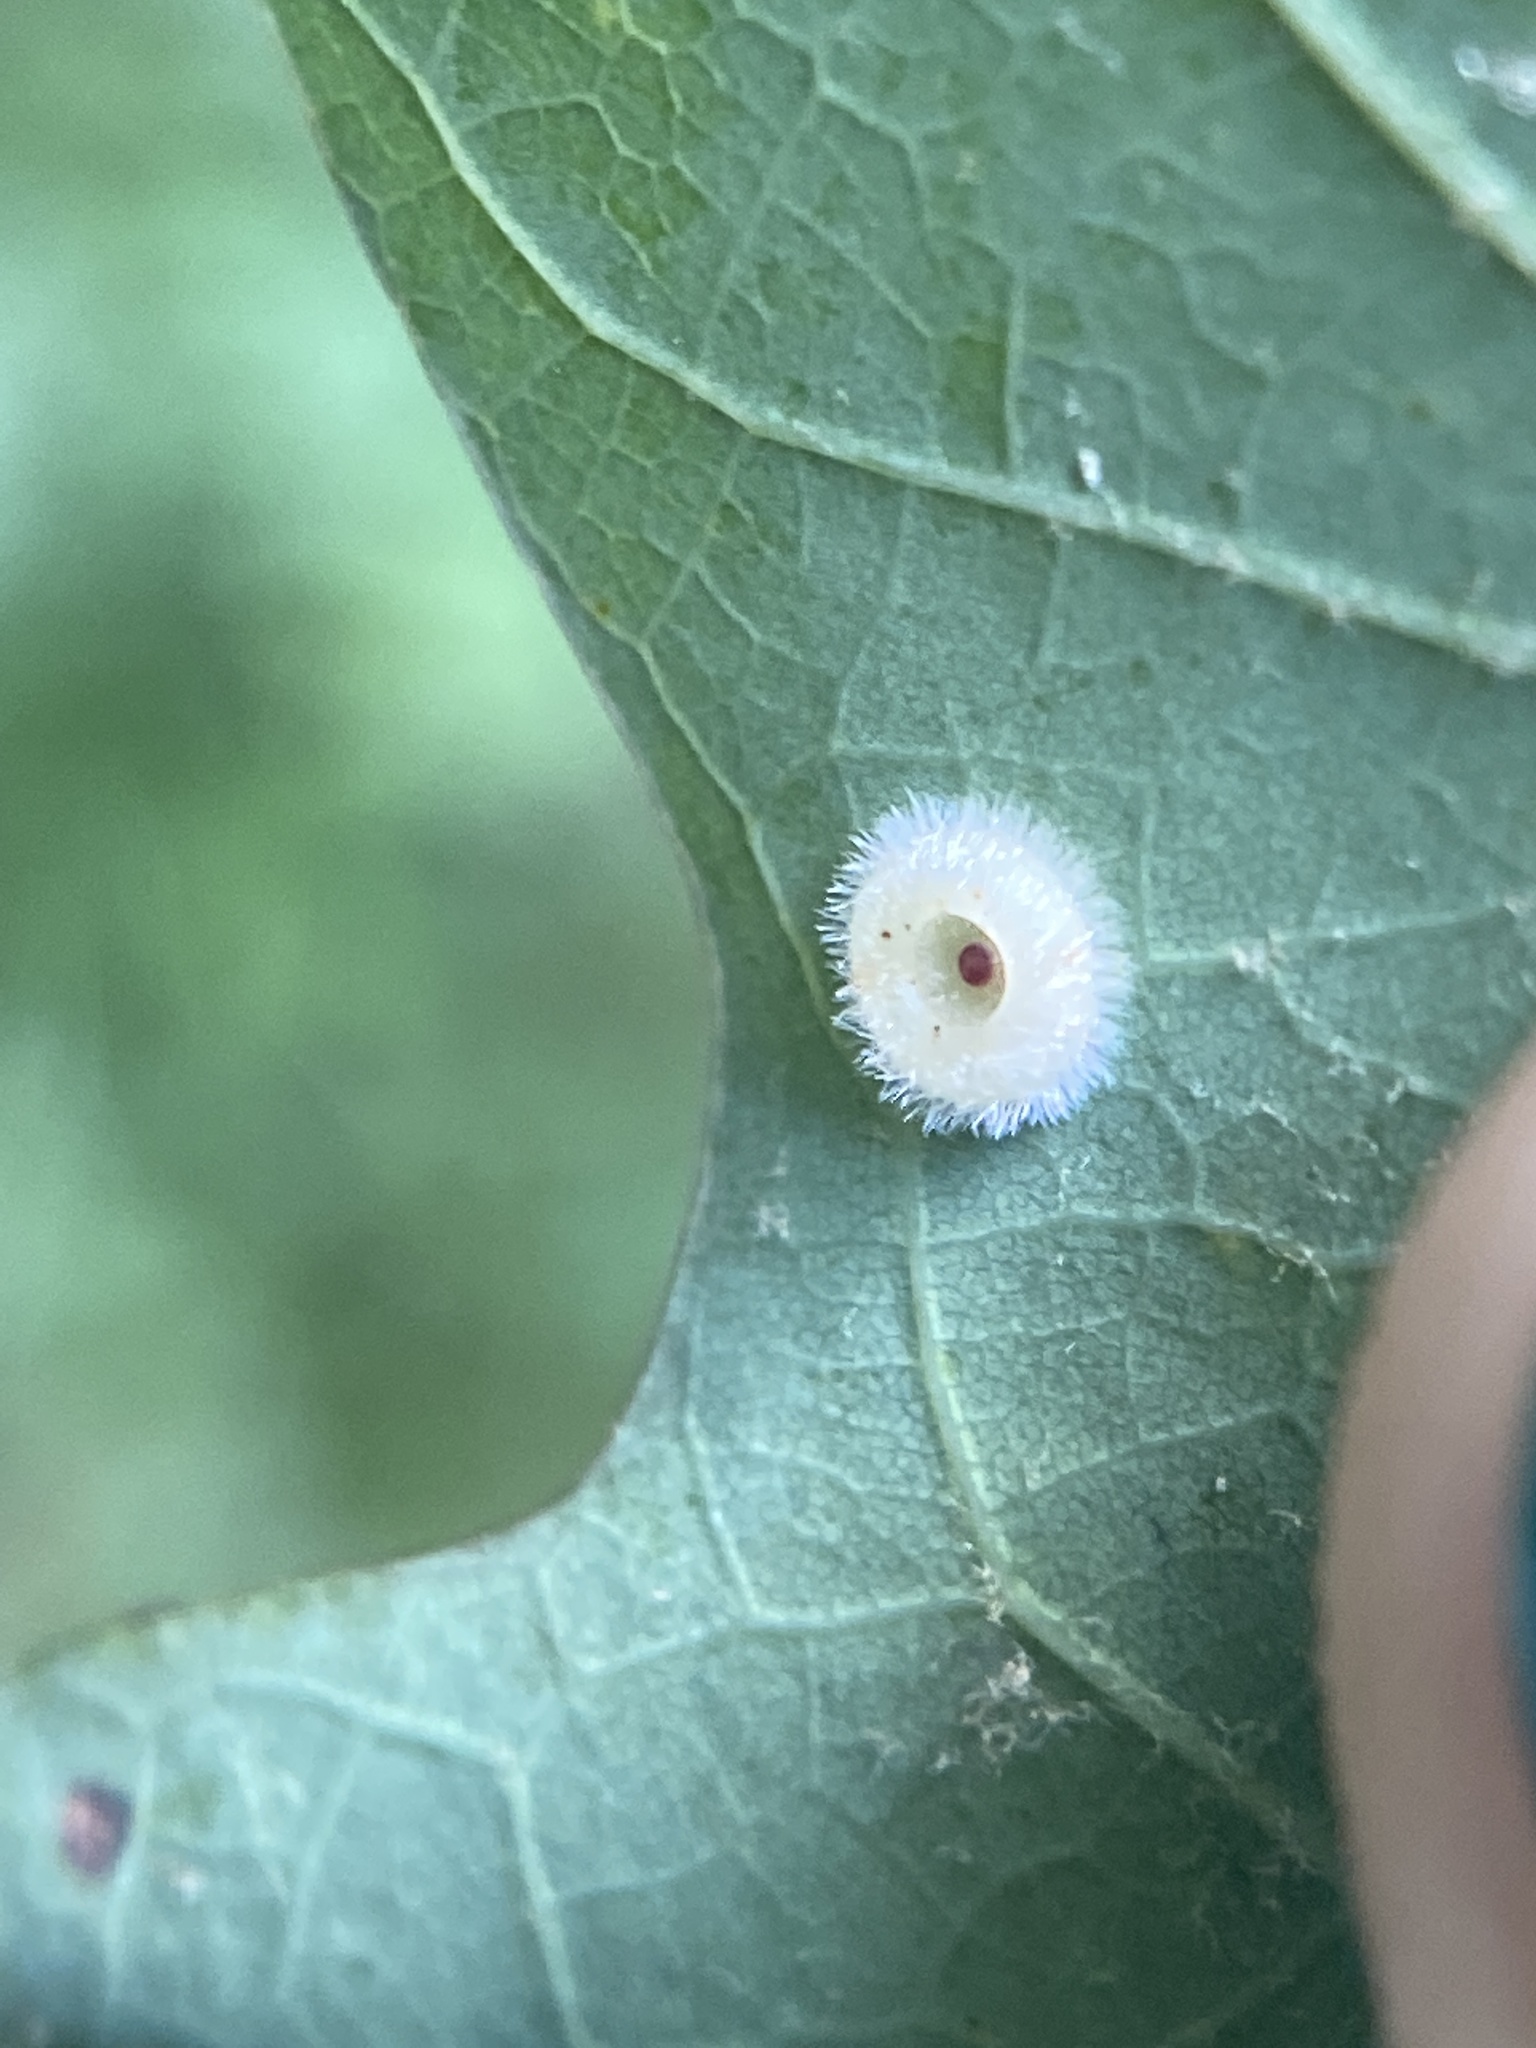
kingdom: Animalia
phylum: Arthropoda
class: Insecta
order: Hymenoptera
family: Cynipidae
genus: Neuroterus
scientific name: Neuroterus
